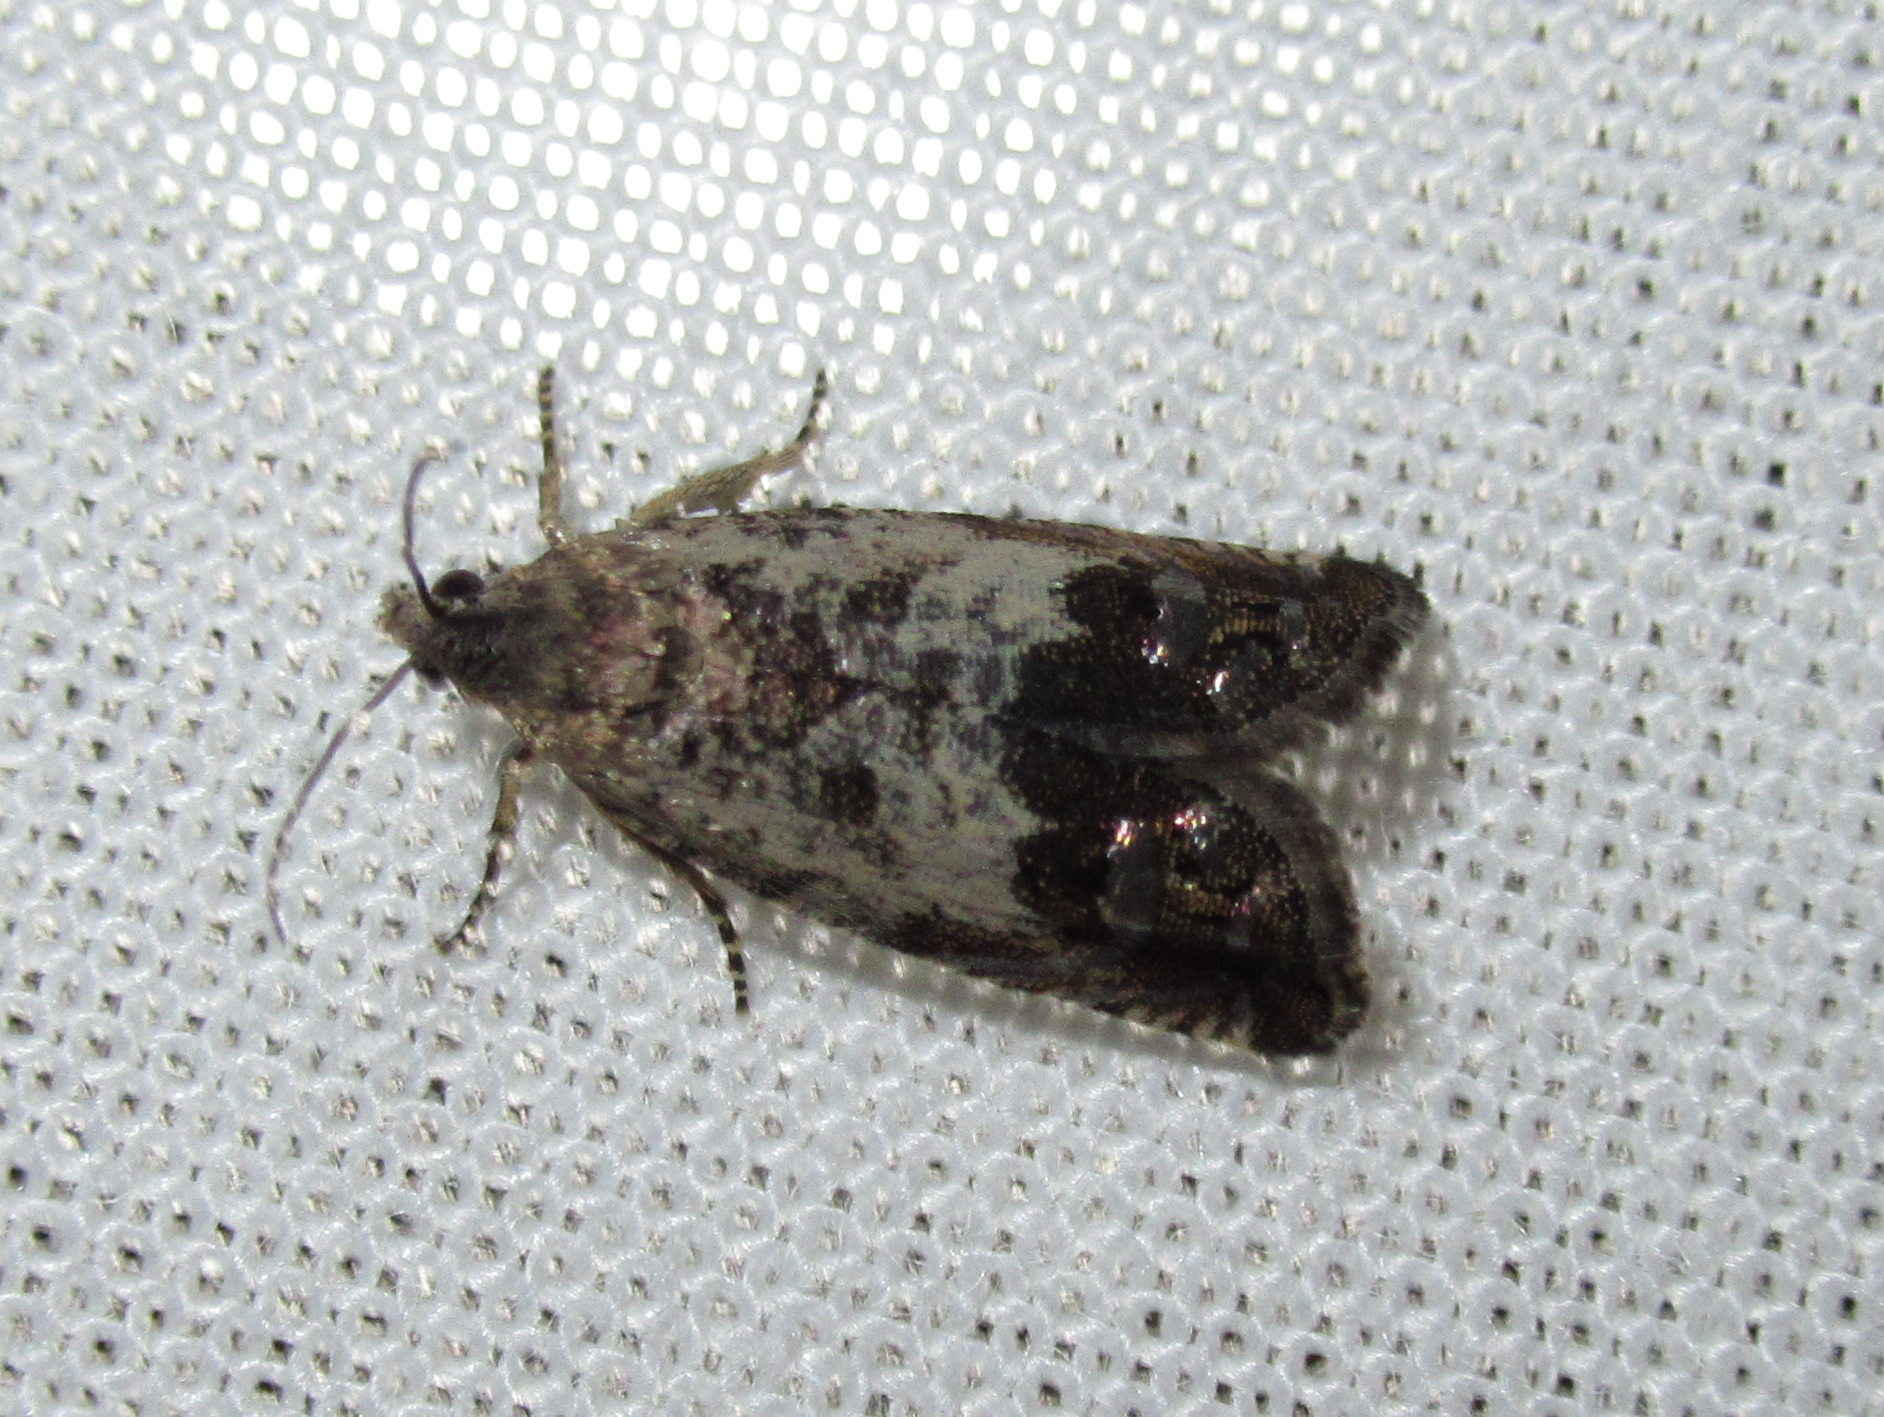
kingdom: Animalia
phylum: Arthropoda
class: Insecta
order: Lepidoptera
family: Tortricidae
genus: Cydia
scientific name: Cydia succedana
